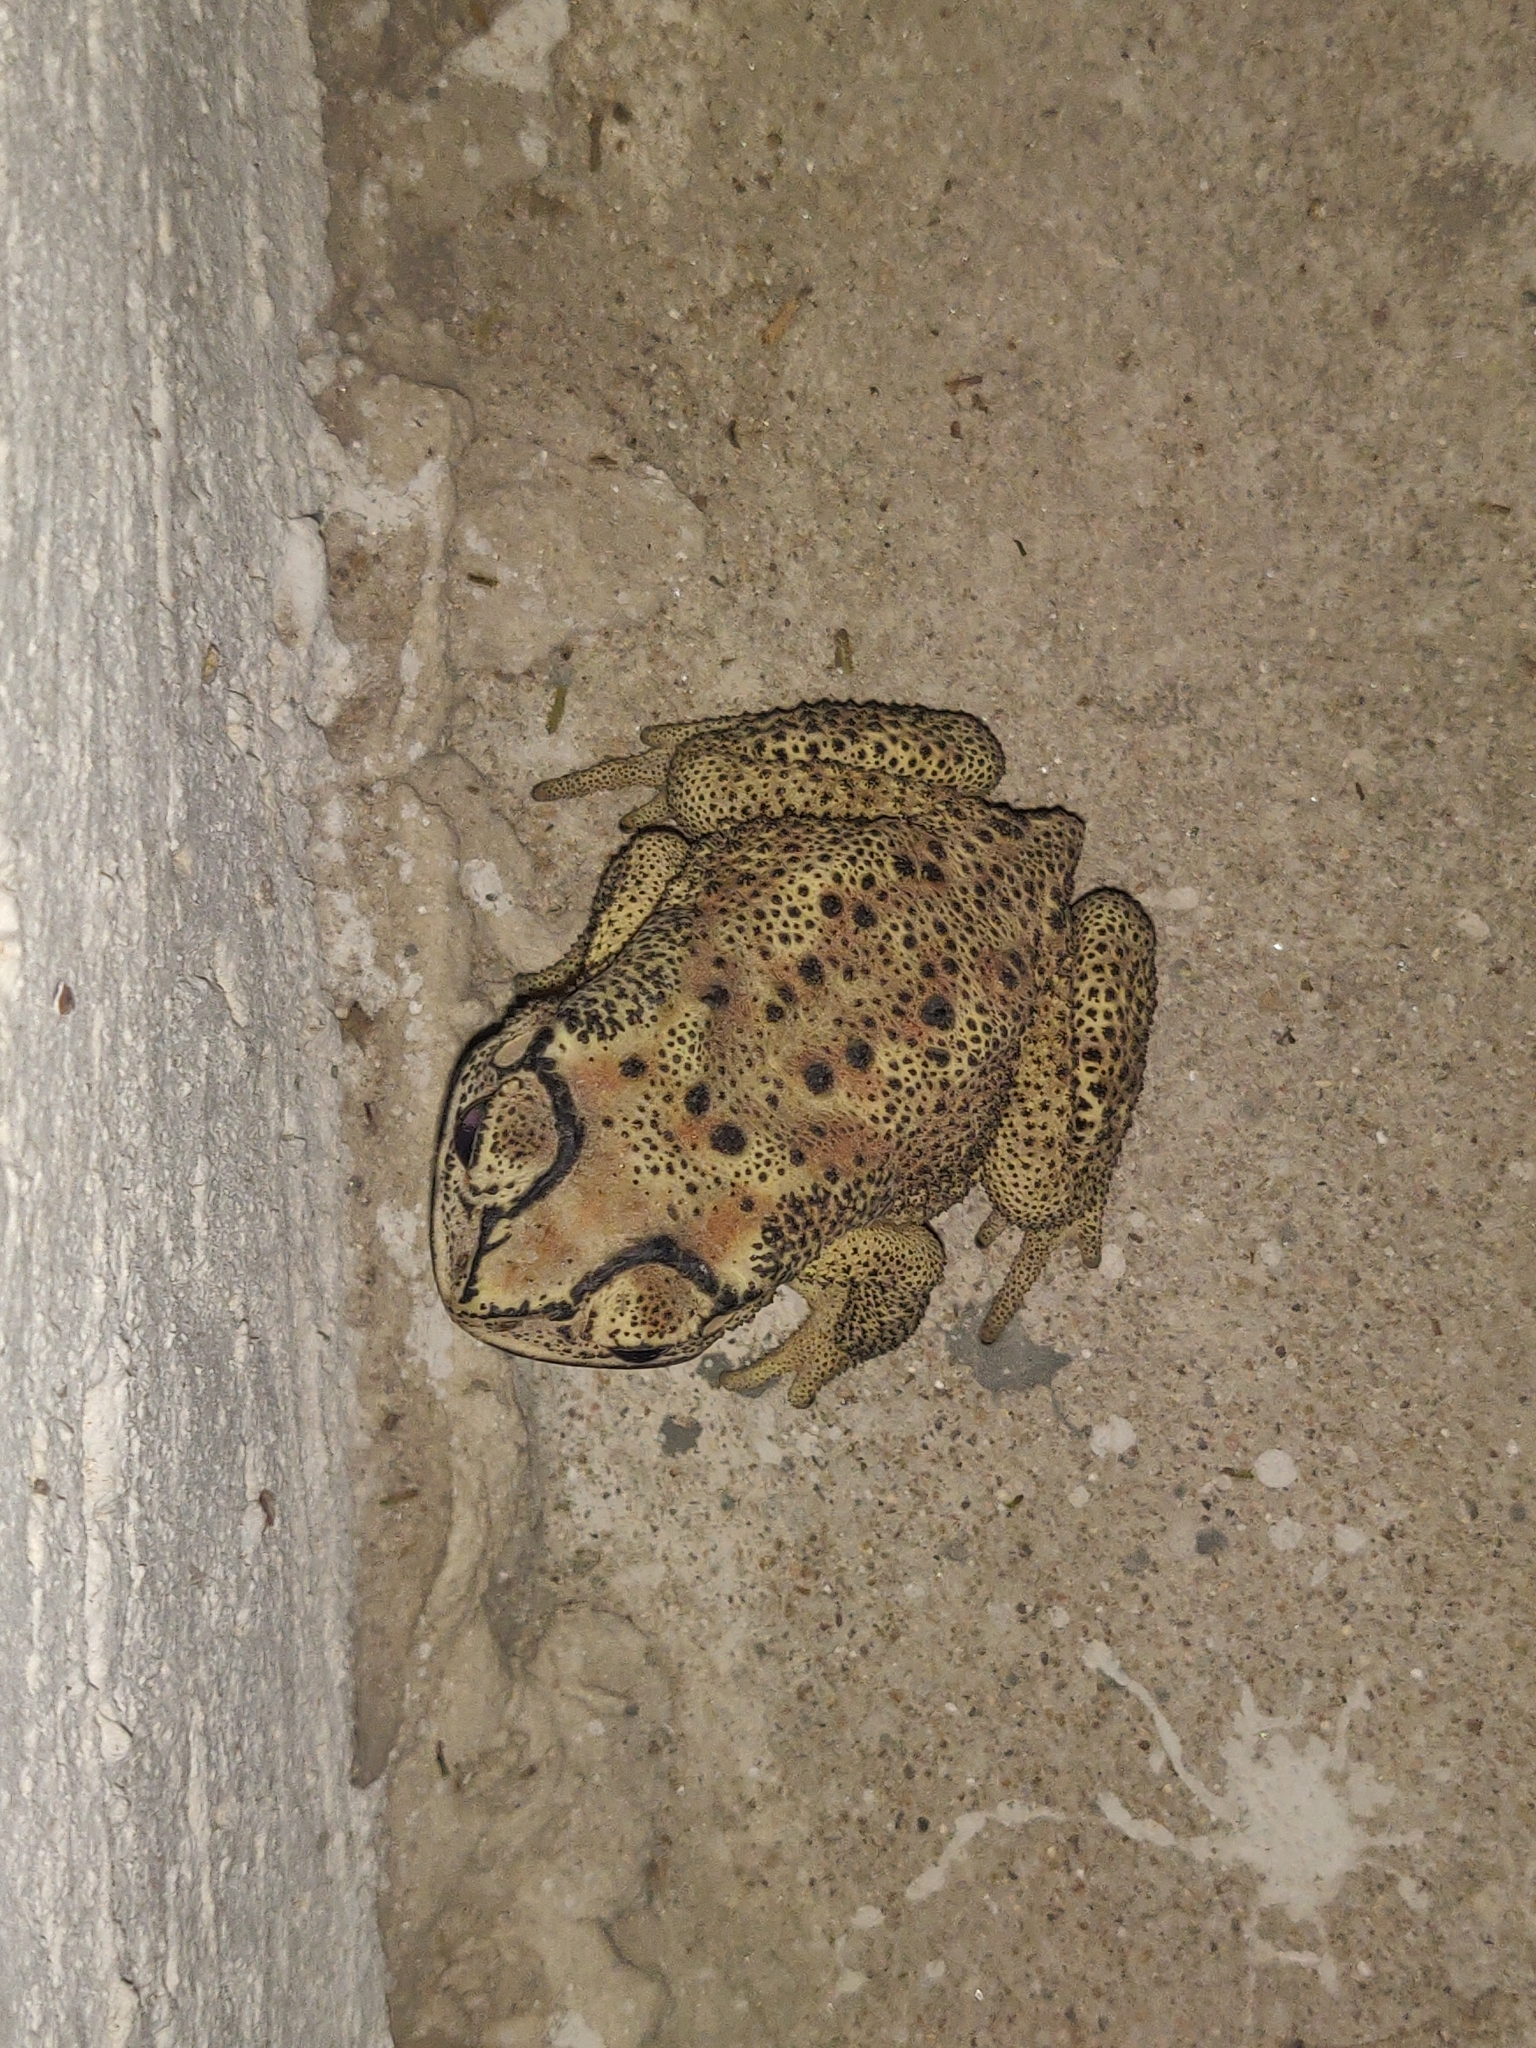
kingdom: Animalia
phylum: Chordata
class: Amphibia
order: Anura
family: Bufonidae
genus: Duttaphrynus
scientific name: Duttaphrynus melanostictus
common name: Common sunda toad
